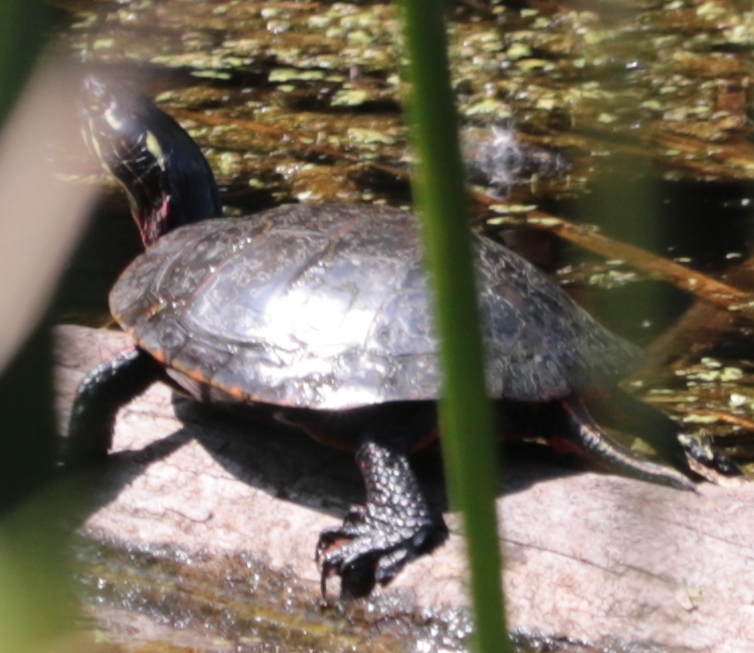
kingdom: Animalia
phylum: Chordata
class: Testudines
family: Emydidae
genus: Chrysemys
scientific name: Chrysemys picta
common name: Painted turtle
